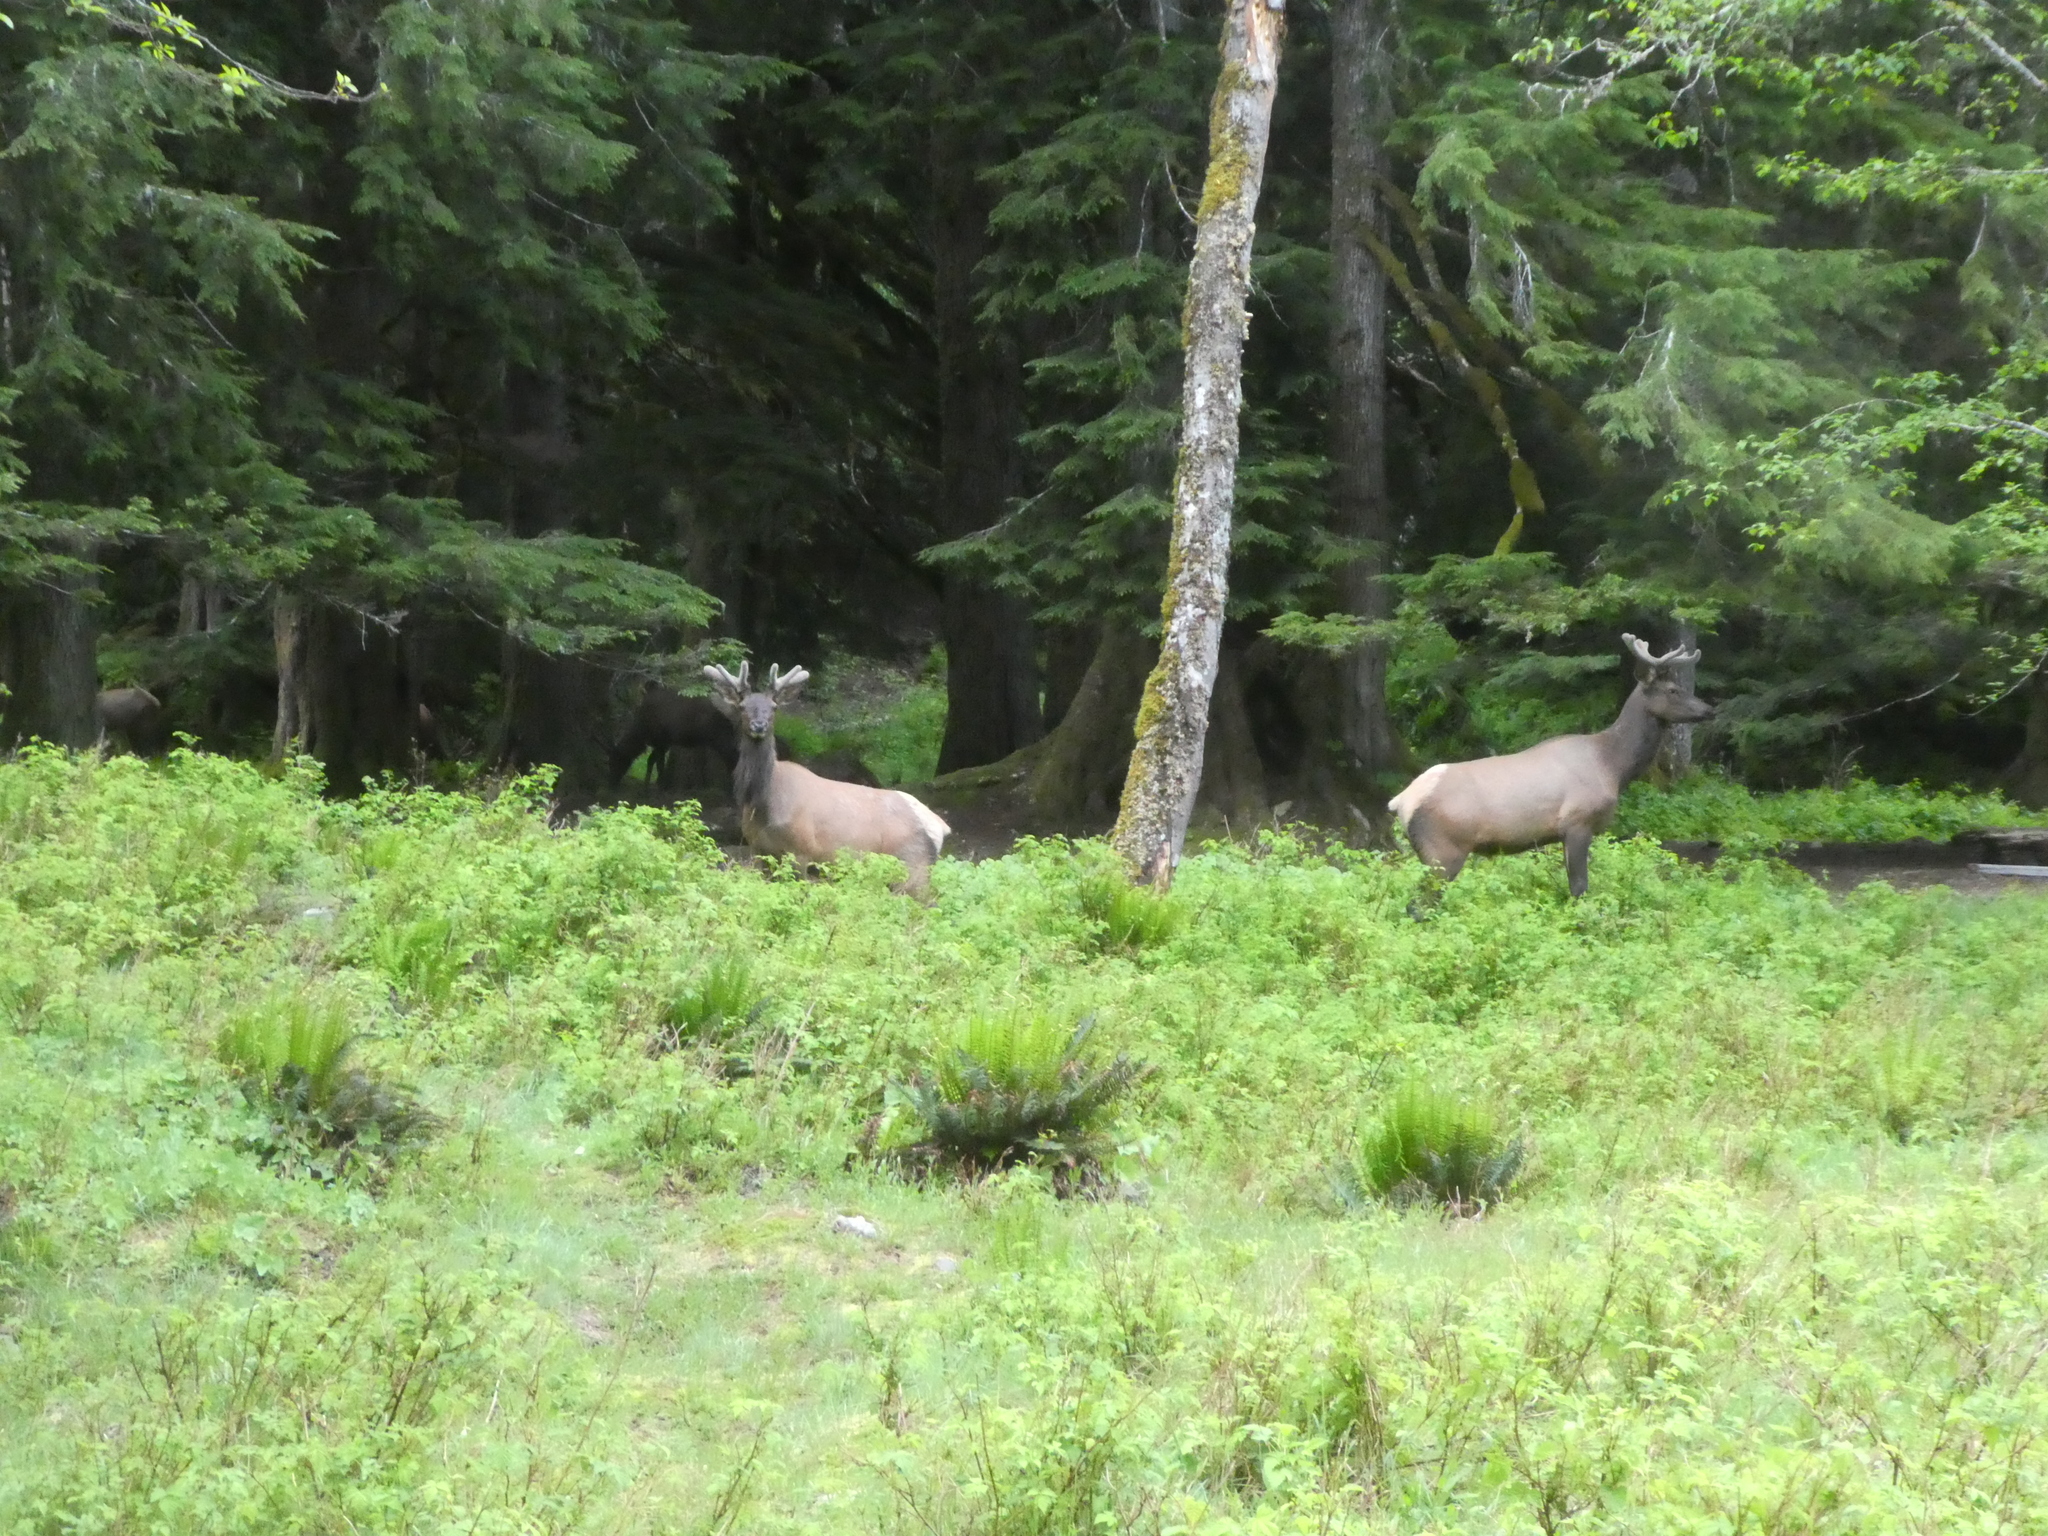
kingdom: Animalia
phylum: Chordata
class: Mammalia
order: Artiodactyla
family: Cervidae
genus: Cervus
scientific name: Cervus elaphus
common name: Red deer
